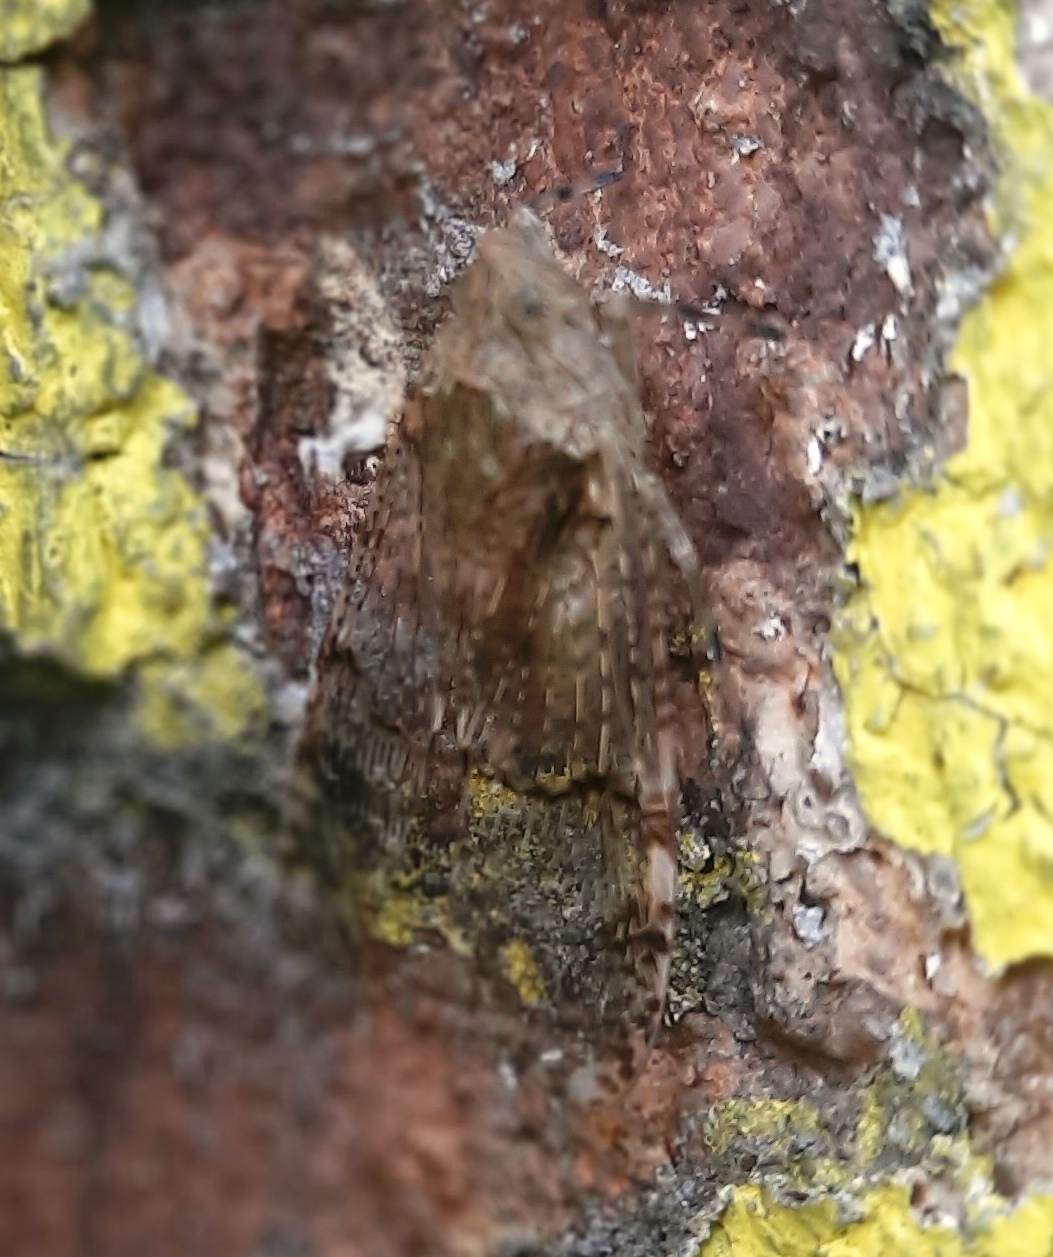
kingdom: Animalia
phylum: Arthropoda
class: Insecta
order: Hemiptera
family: Fulgoridae
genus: Dichoptera
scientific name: Dichoptera hyalinata
